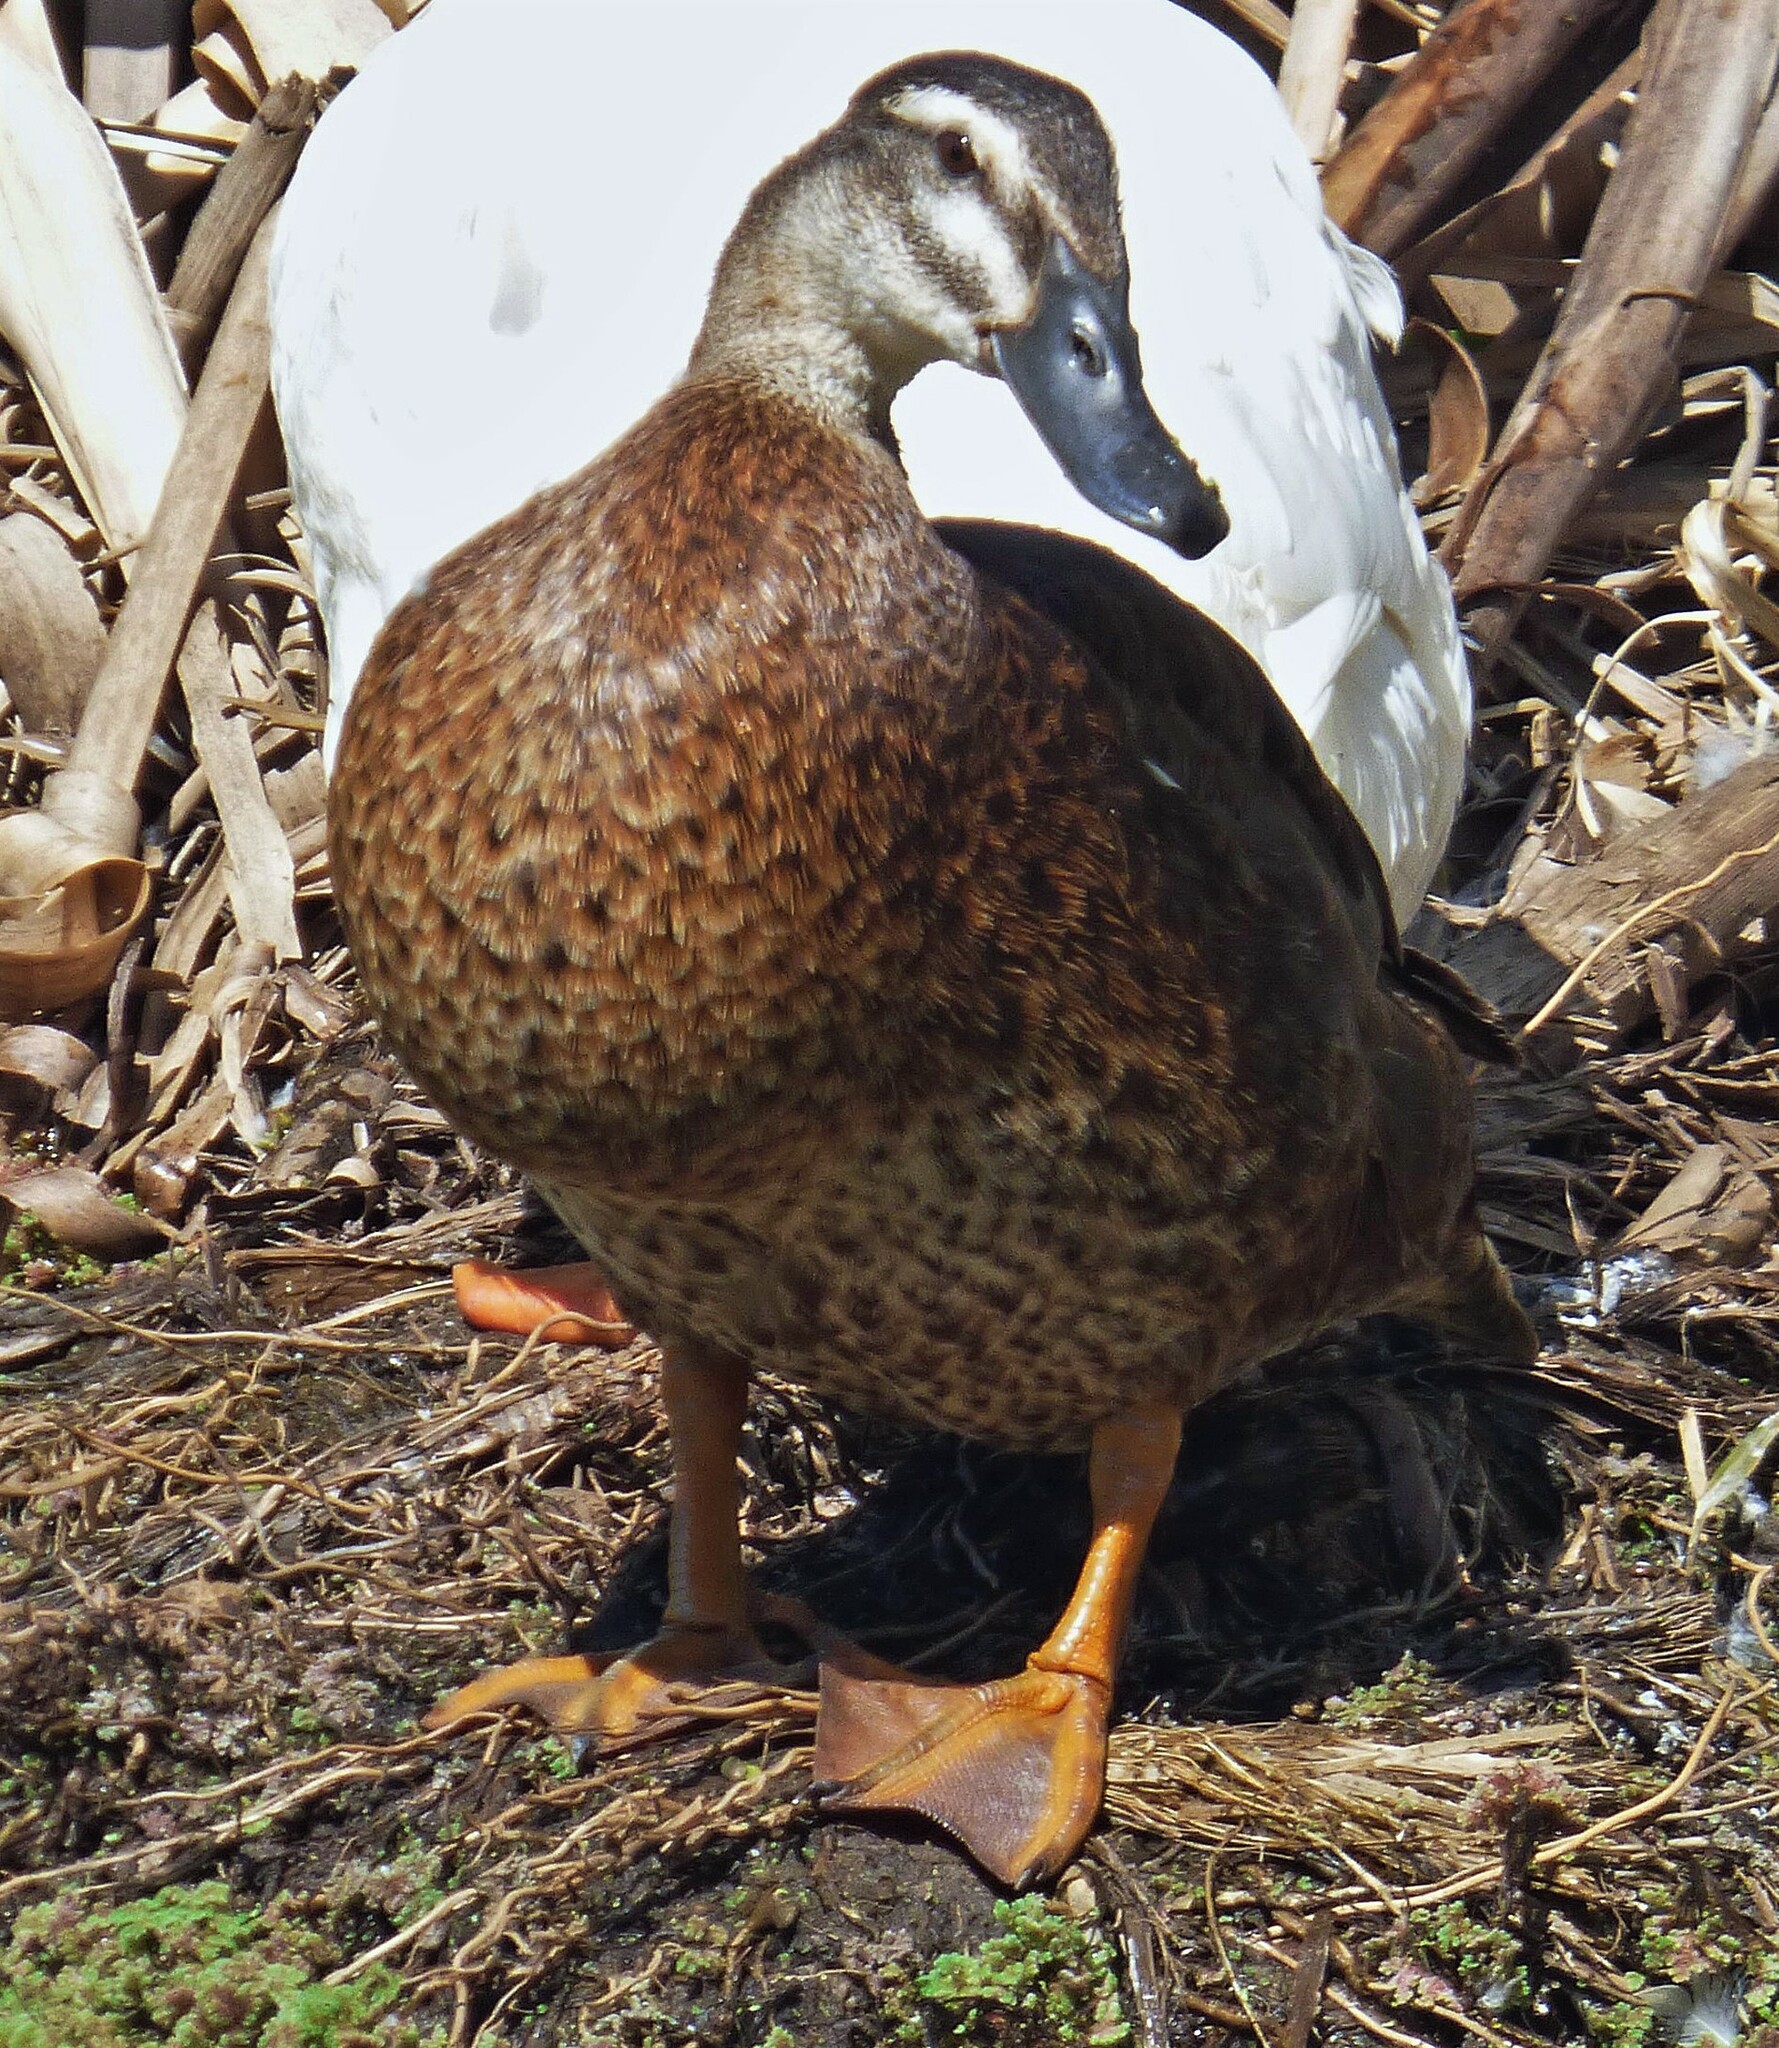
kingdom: Animalia
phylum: Chordata
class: Aves
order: Anseriformes
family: Anatidae
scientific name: Anatidae
